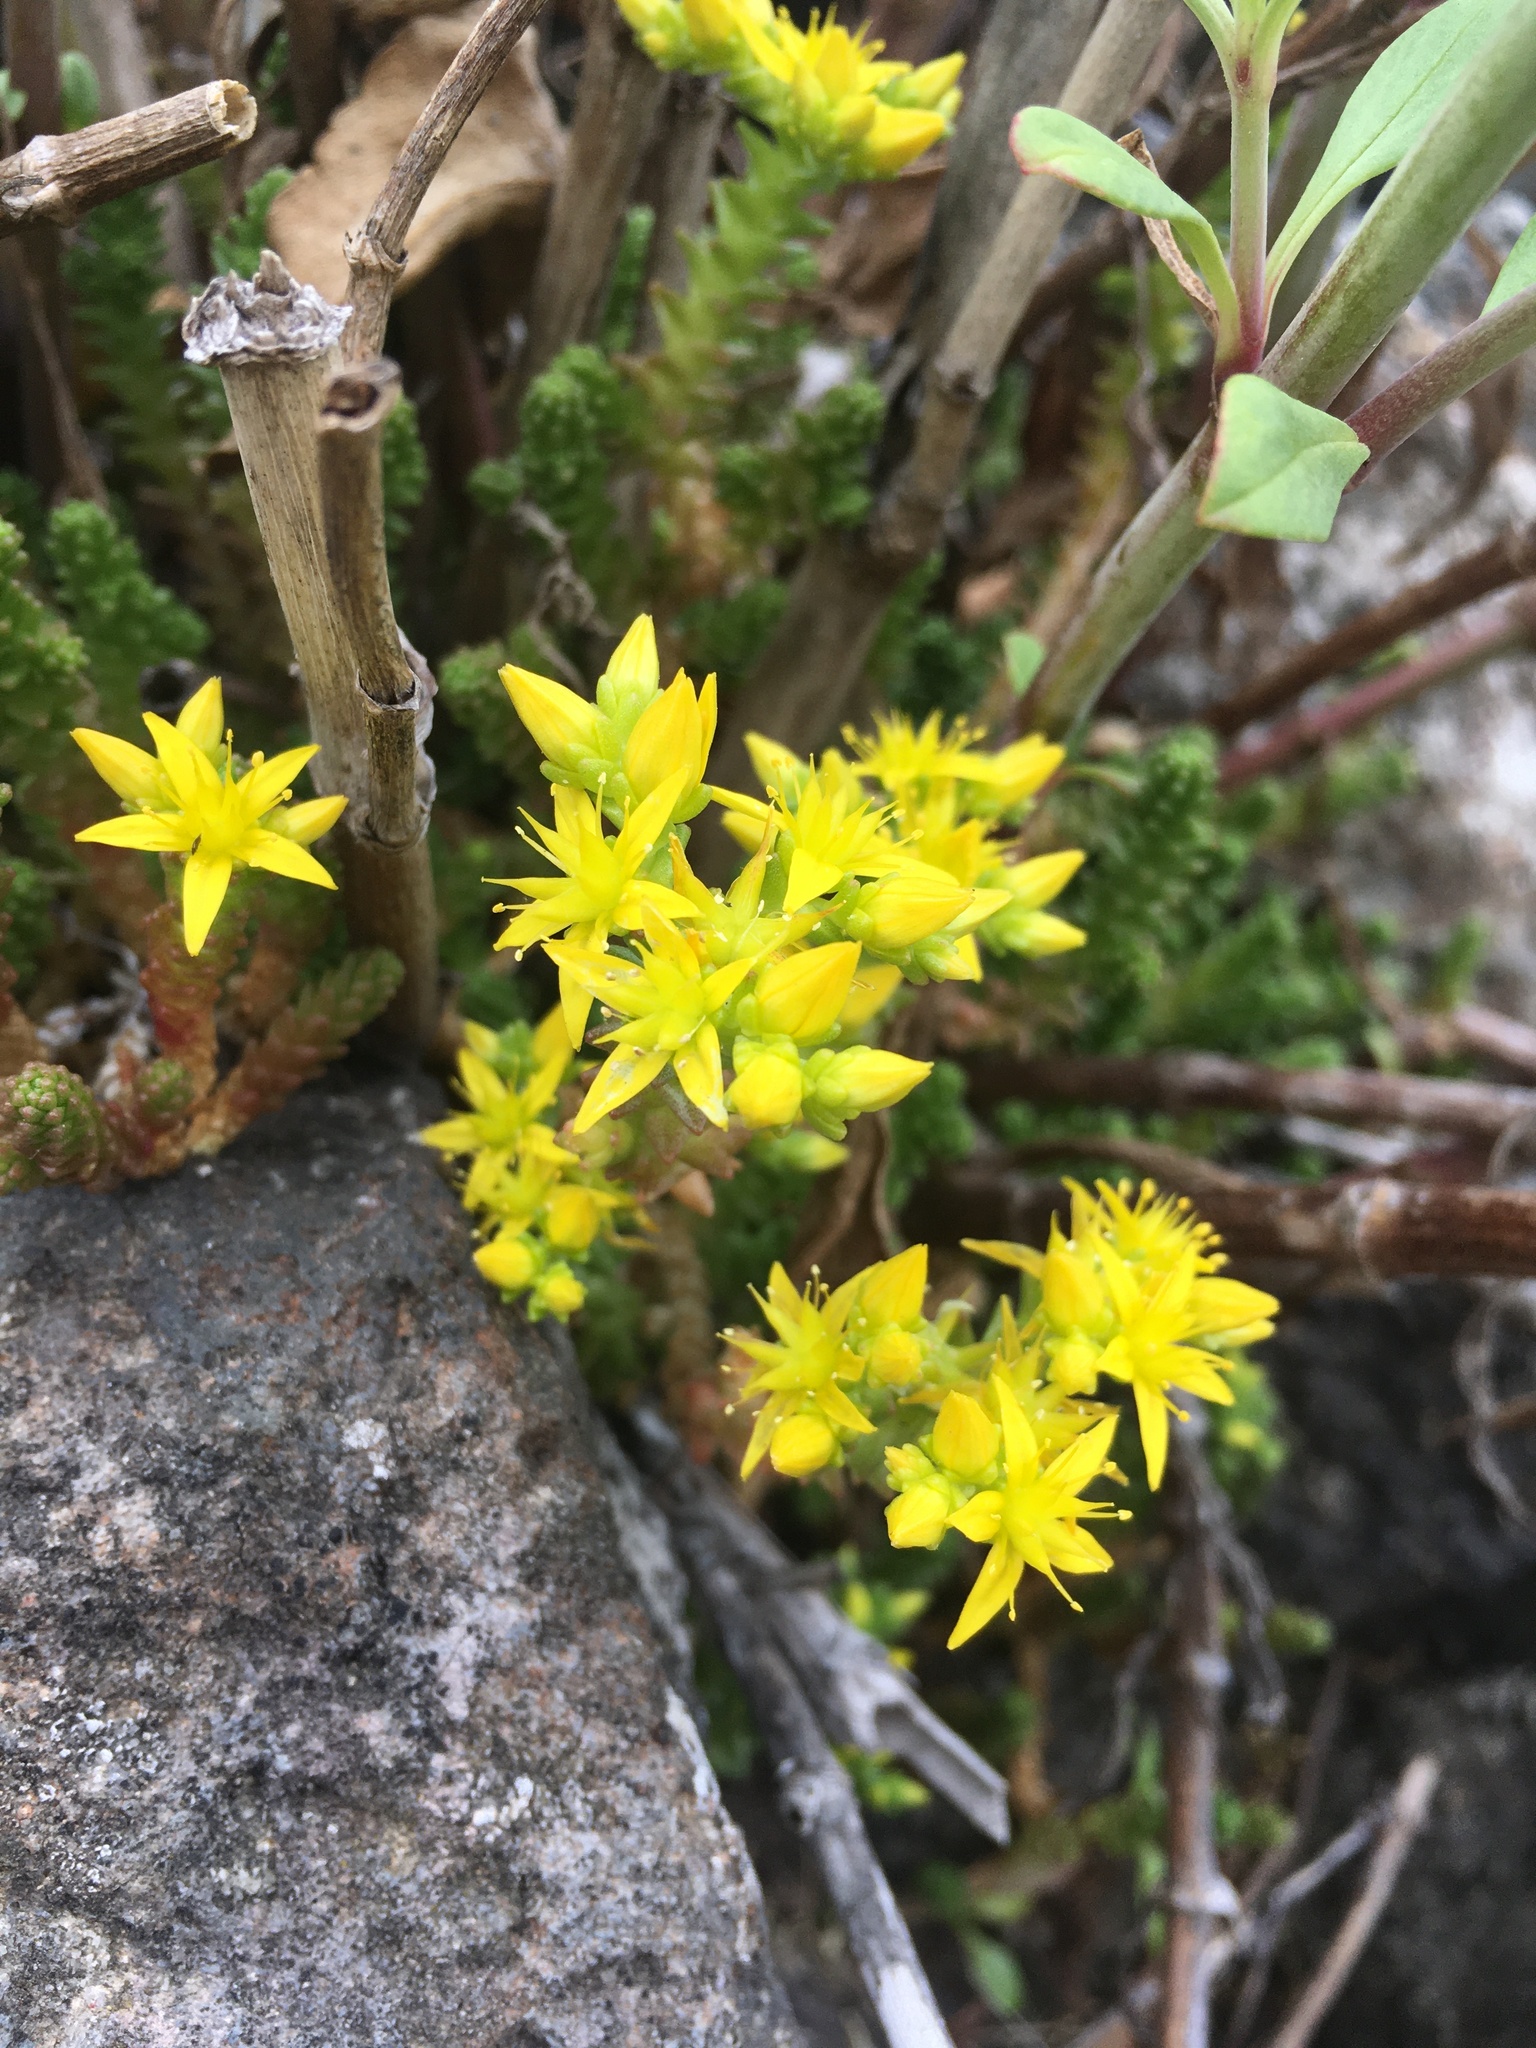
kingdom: Plantae
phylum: Tracheophyta
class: Magnoliopsida
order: Saxifragales
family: Crassulaceae
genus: Sedum
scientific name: Sedum acre
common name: Biting stonecrop
